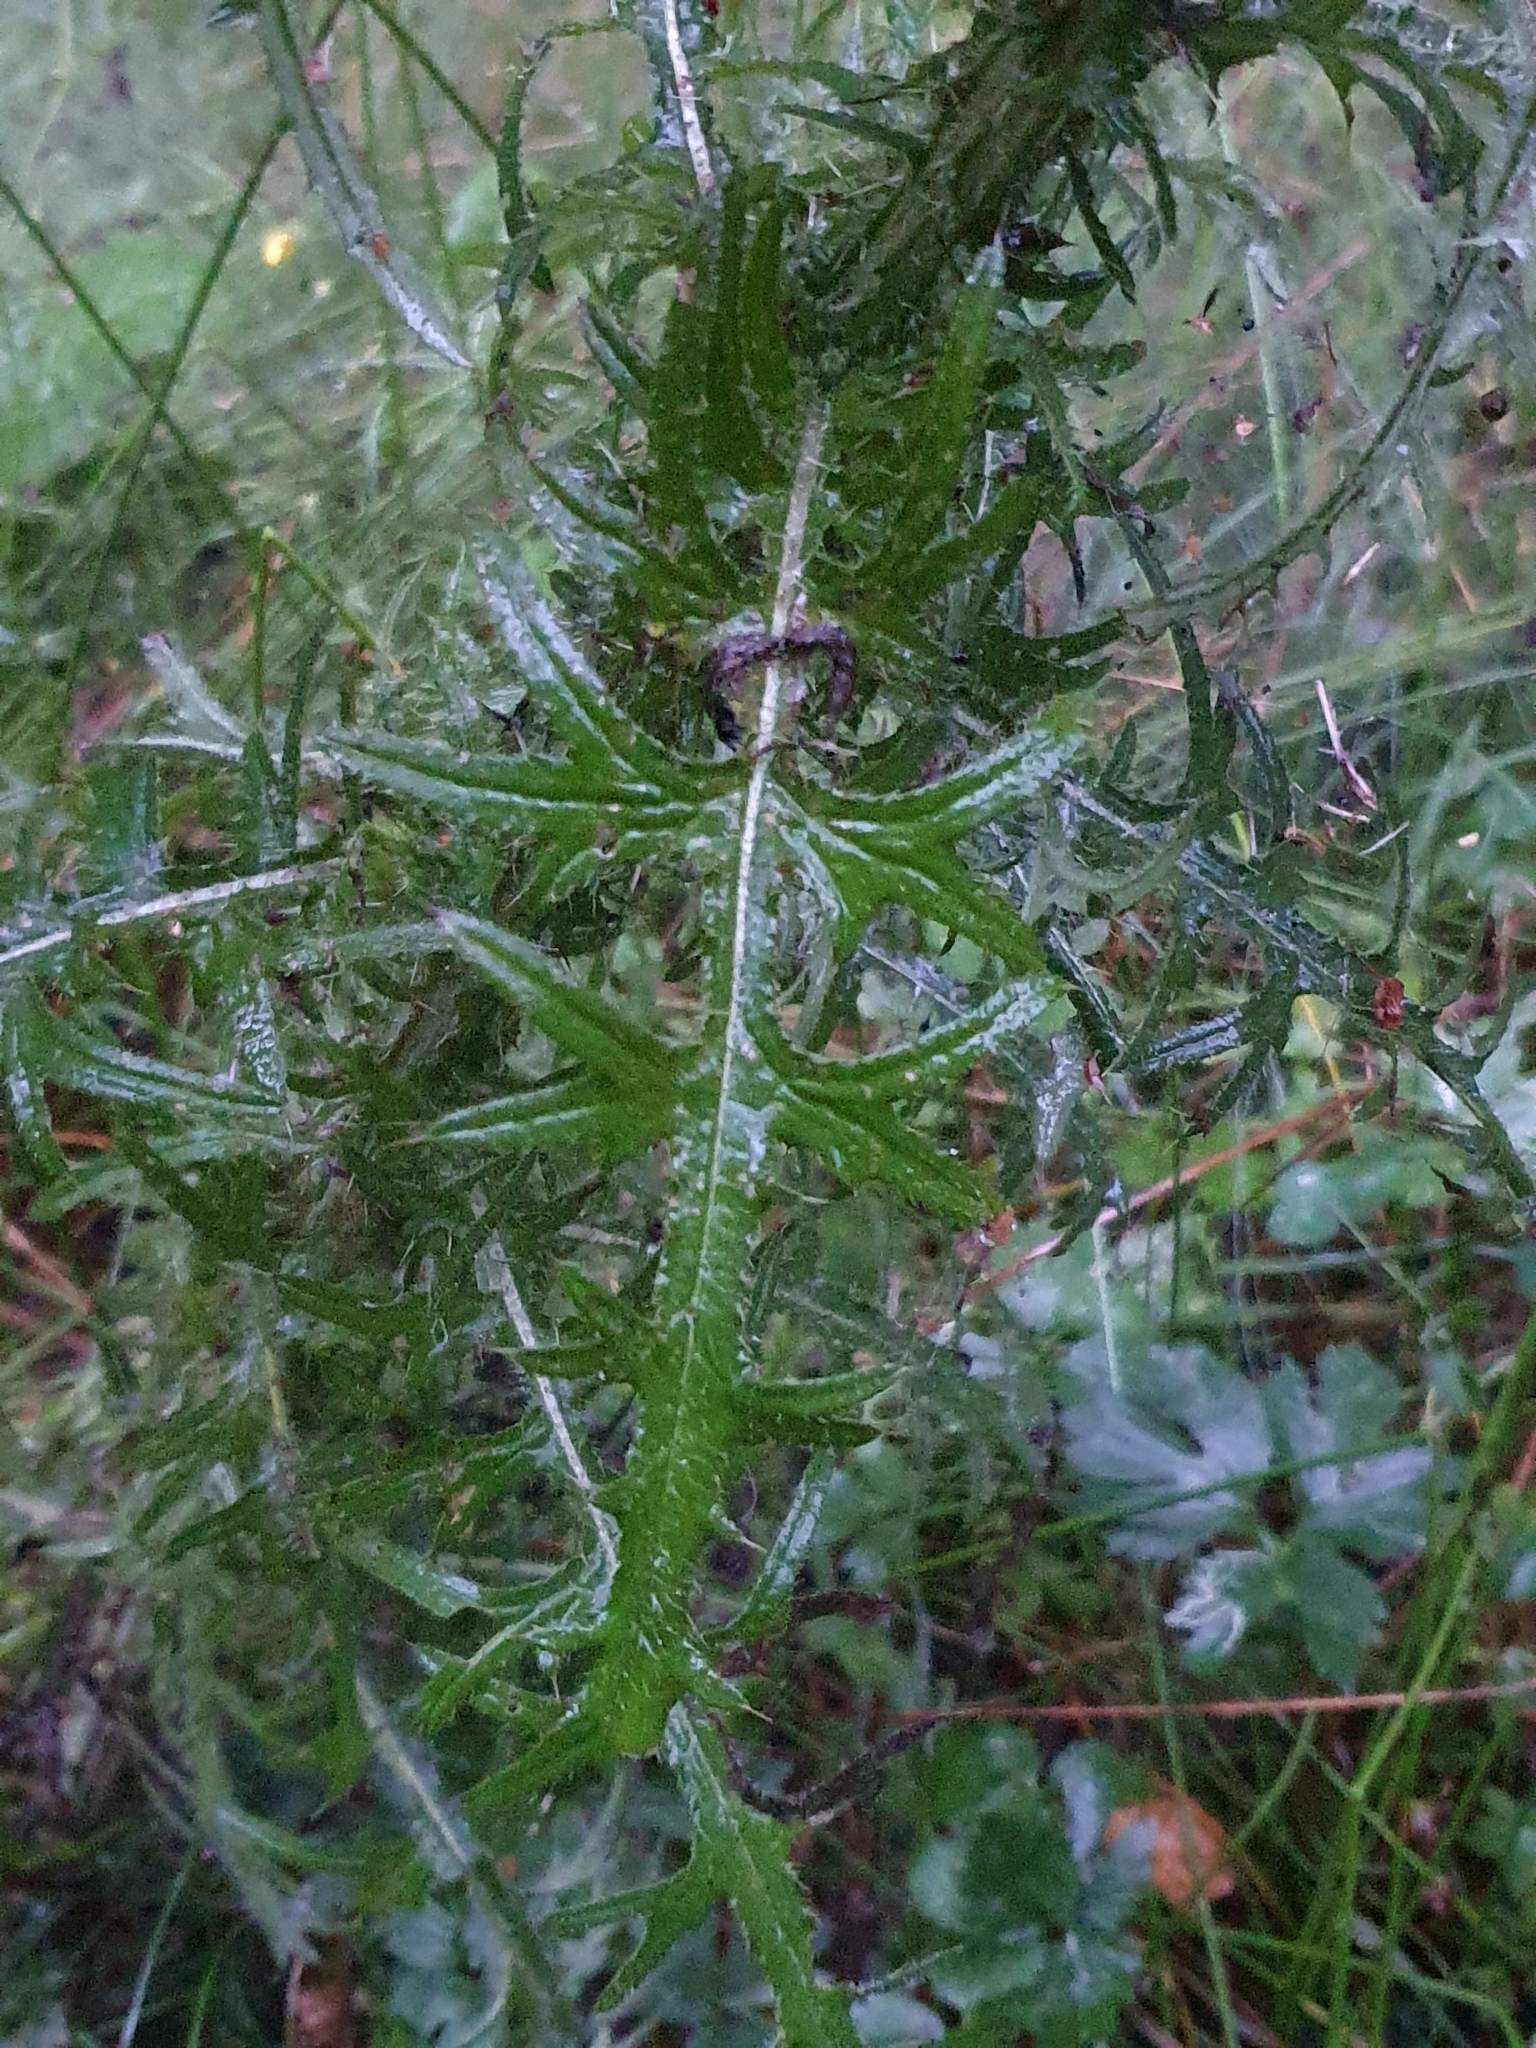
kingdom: Plantae
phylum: Tracheophyta
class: Magnoliopsida
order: Asterales
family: Asteraceae
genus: Cirsium
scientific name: Cirsium palustre
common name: Marsh thistle
